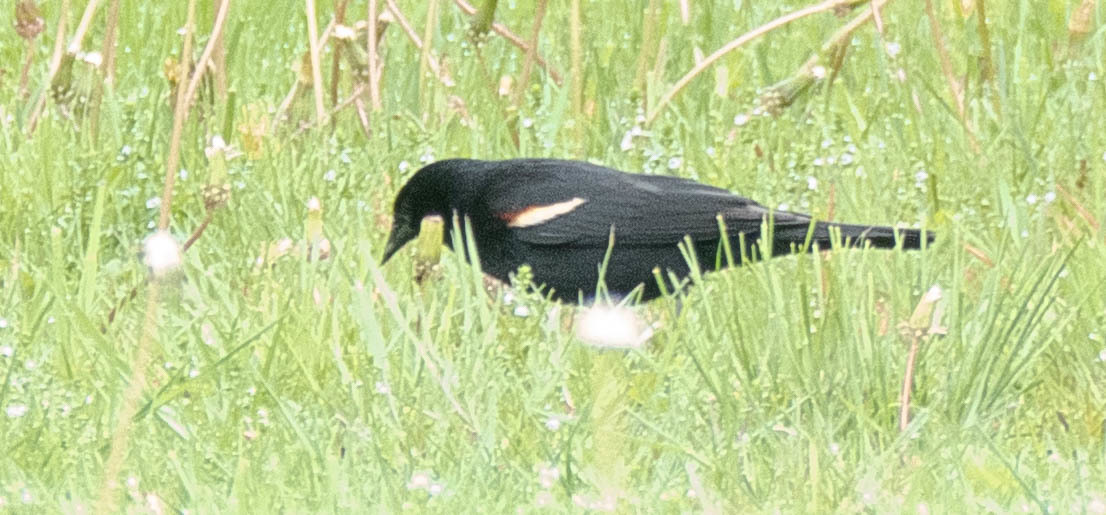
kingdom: Animalia
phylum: Chordata
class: Aves
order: Passeriformes
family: Icteridae
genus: Agelaius
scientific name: Agelaius phoeniceus
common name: Red-winged blackbird
